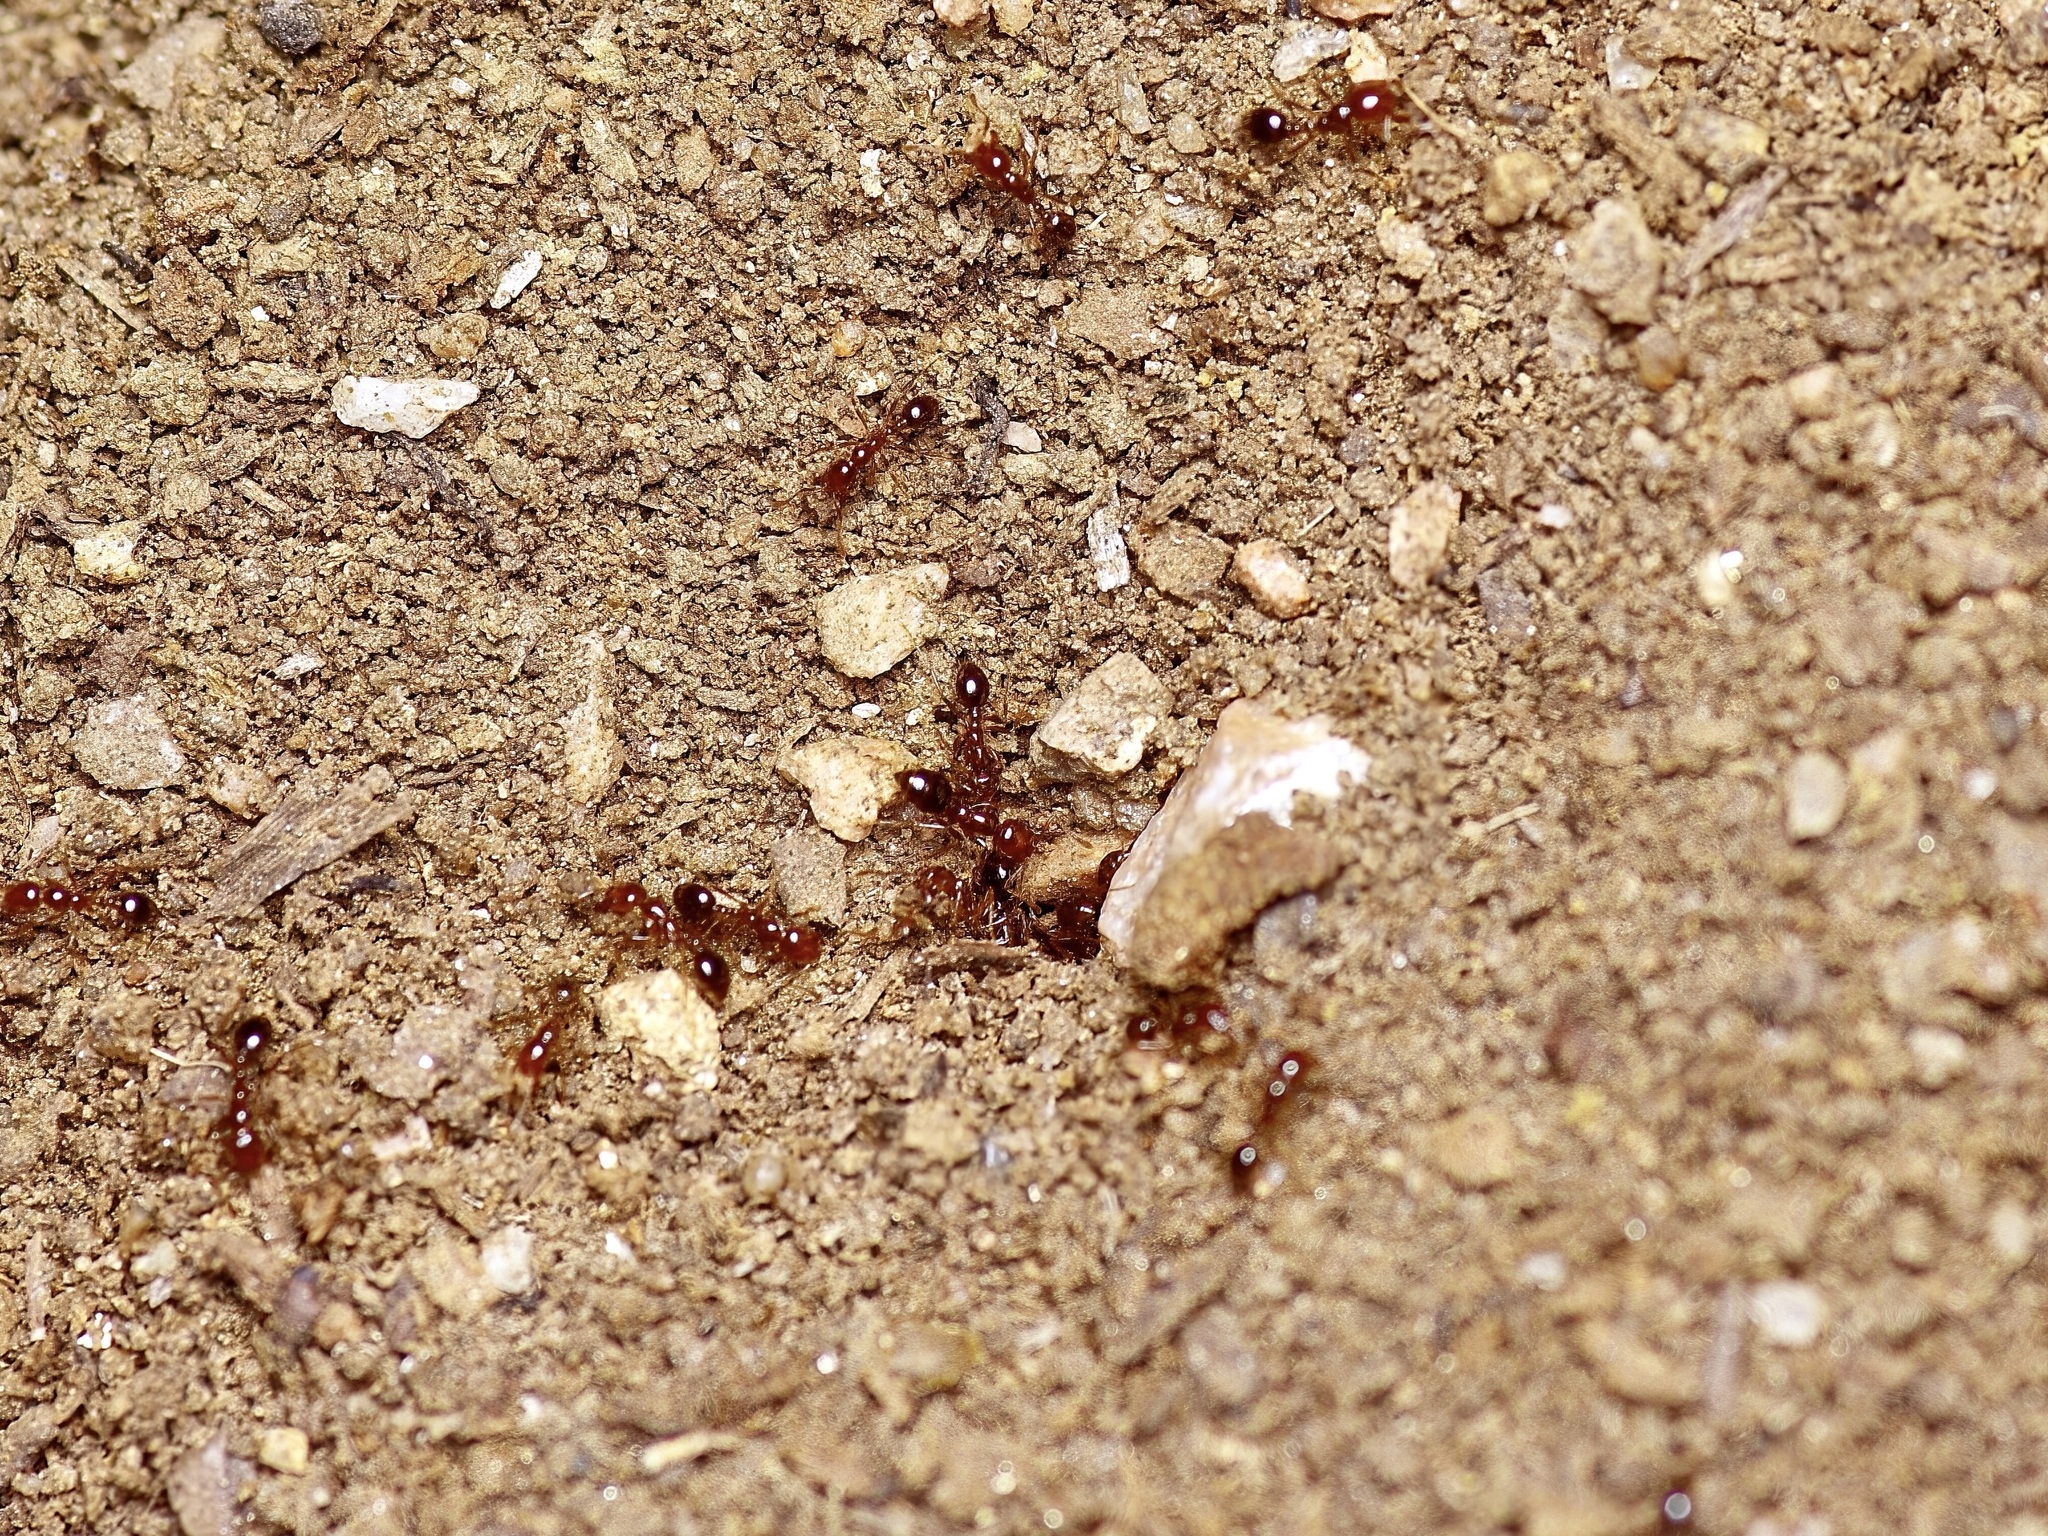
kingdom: Animalia
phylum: Arthropoda
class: Insecta
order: Hymenoptera
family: Formicidae
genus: Solenopsis
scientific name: Solenopsis invicta
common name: Red imported fire ant
